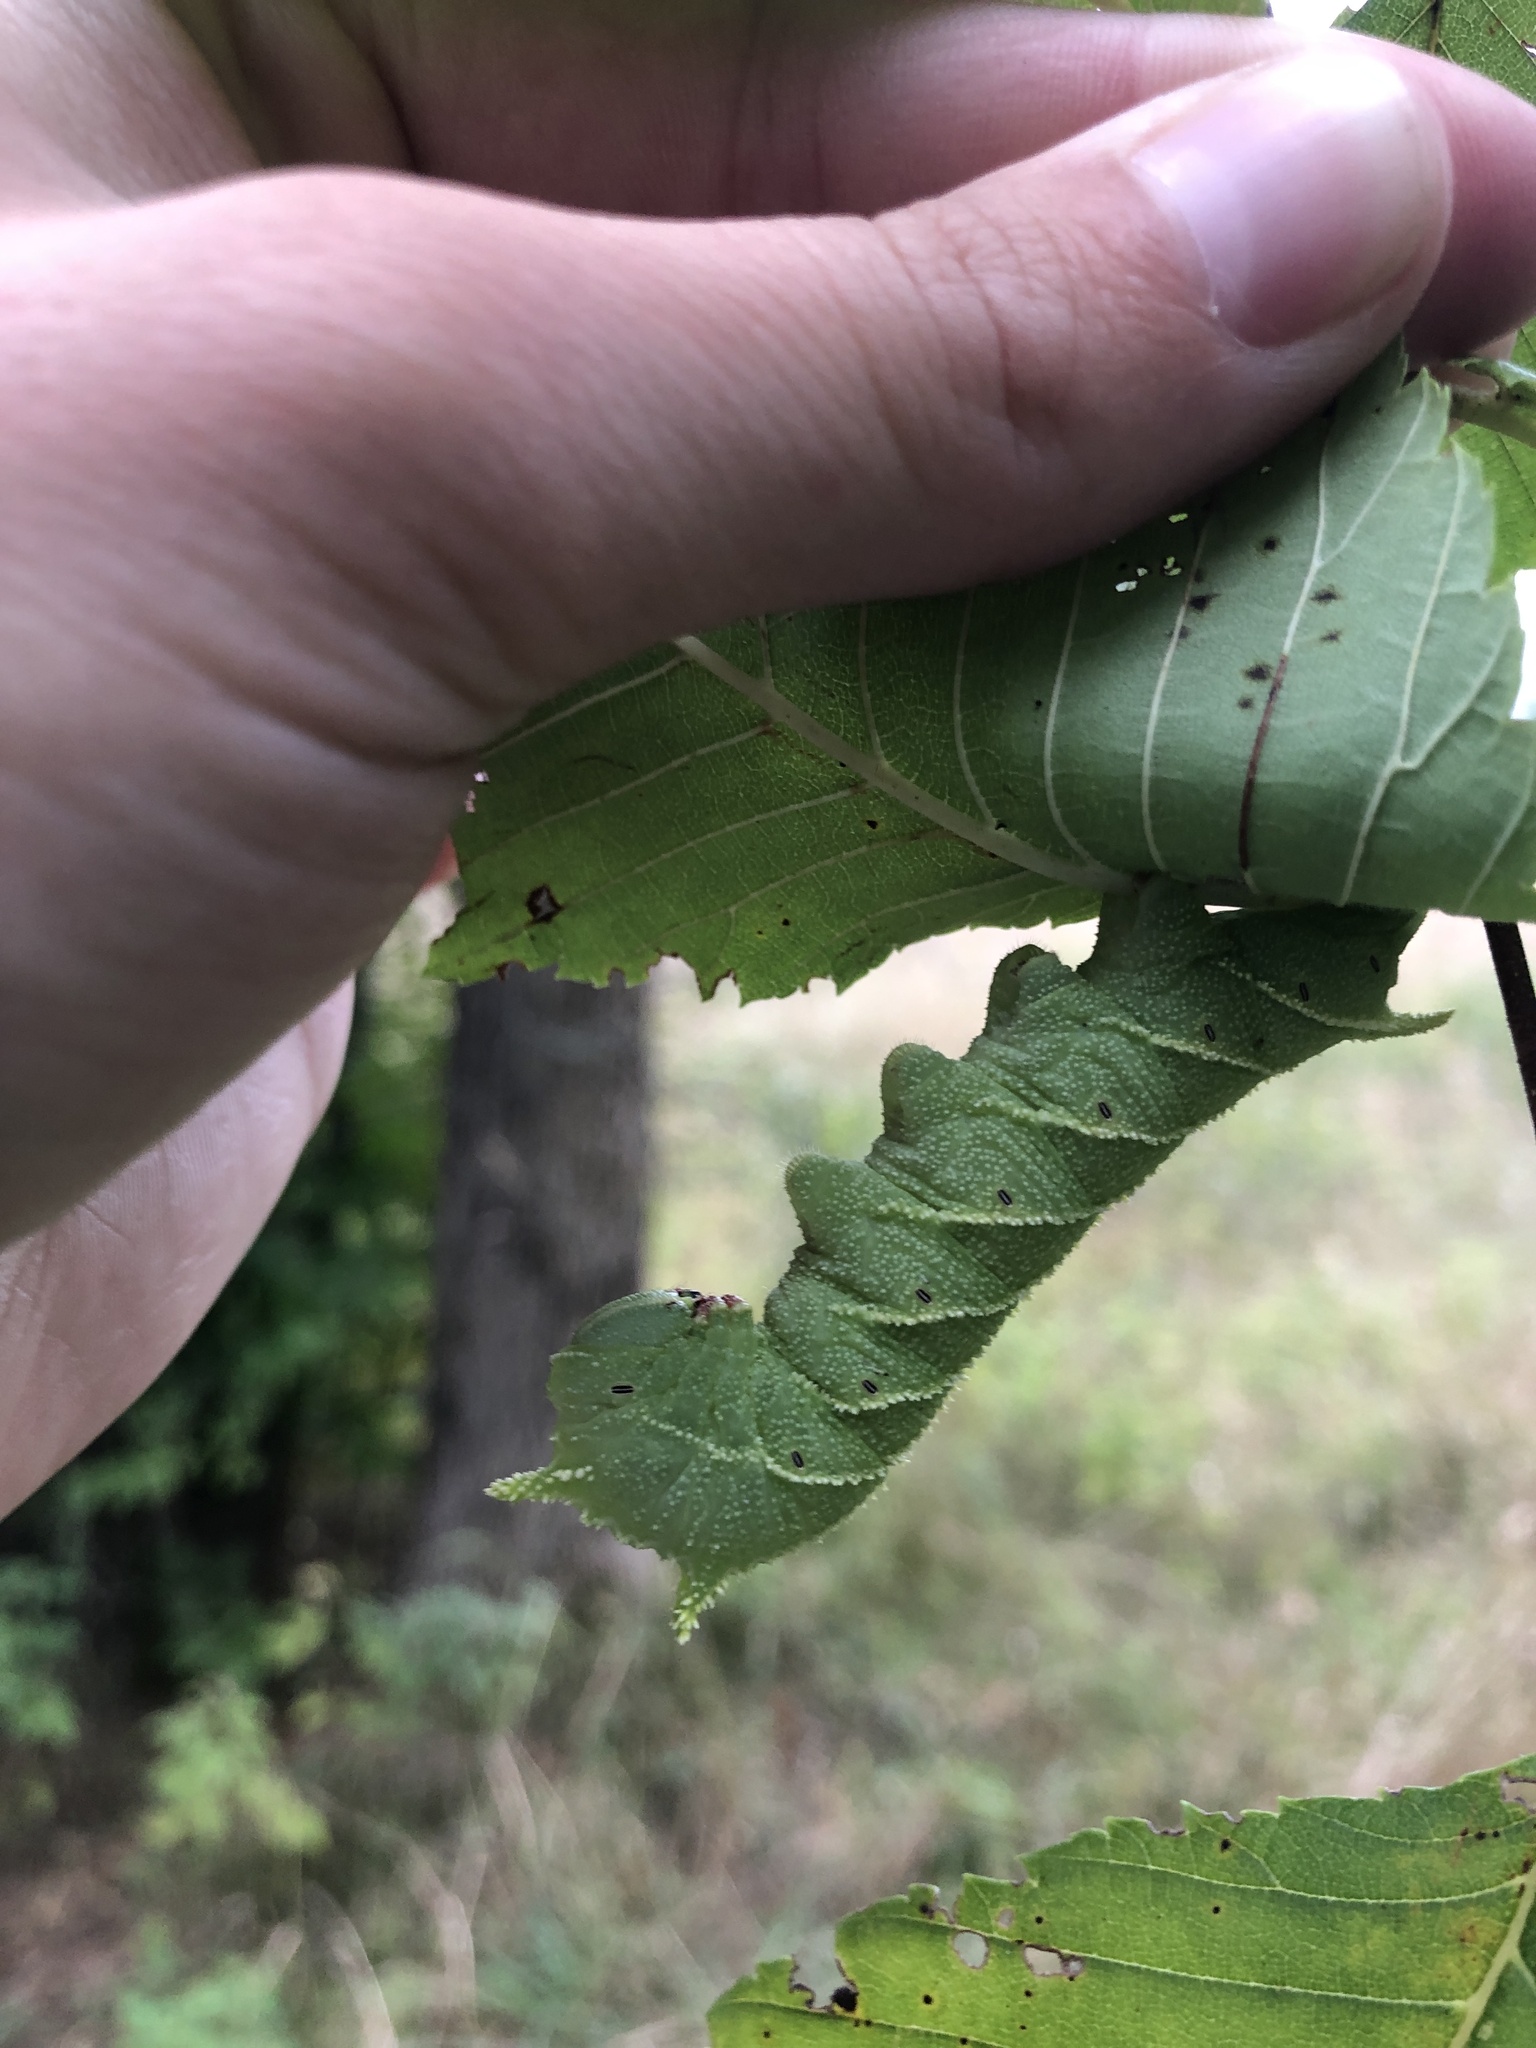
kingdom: Animalia
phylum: Arthropoda
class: Insecta
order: Lepidoptera
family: Sphingidae
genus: Ceratomia
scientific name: Ceratomia amyntor
